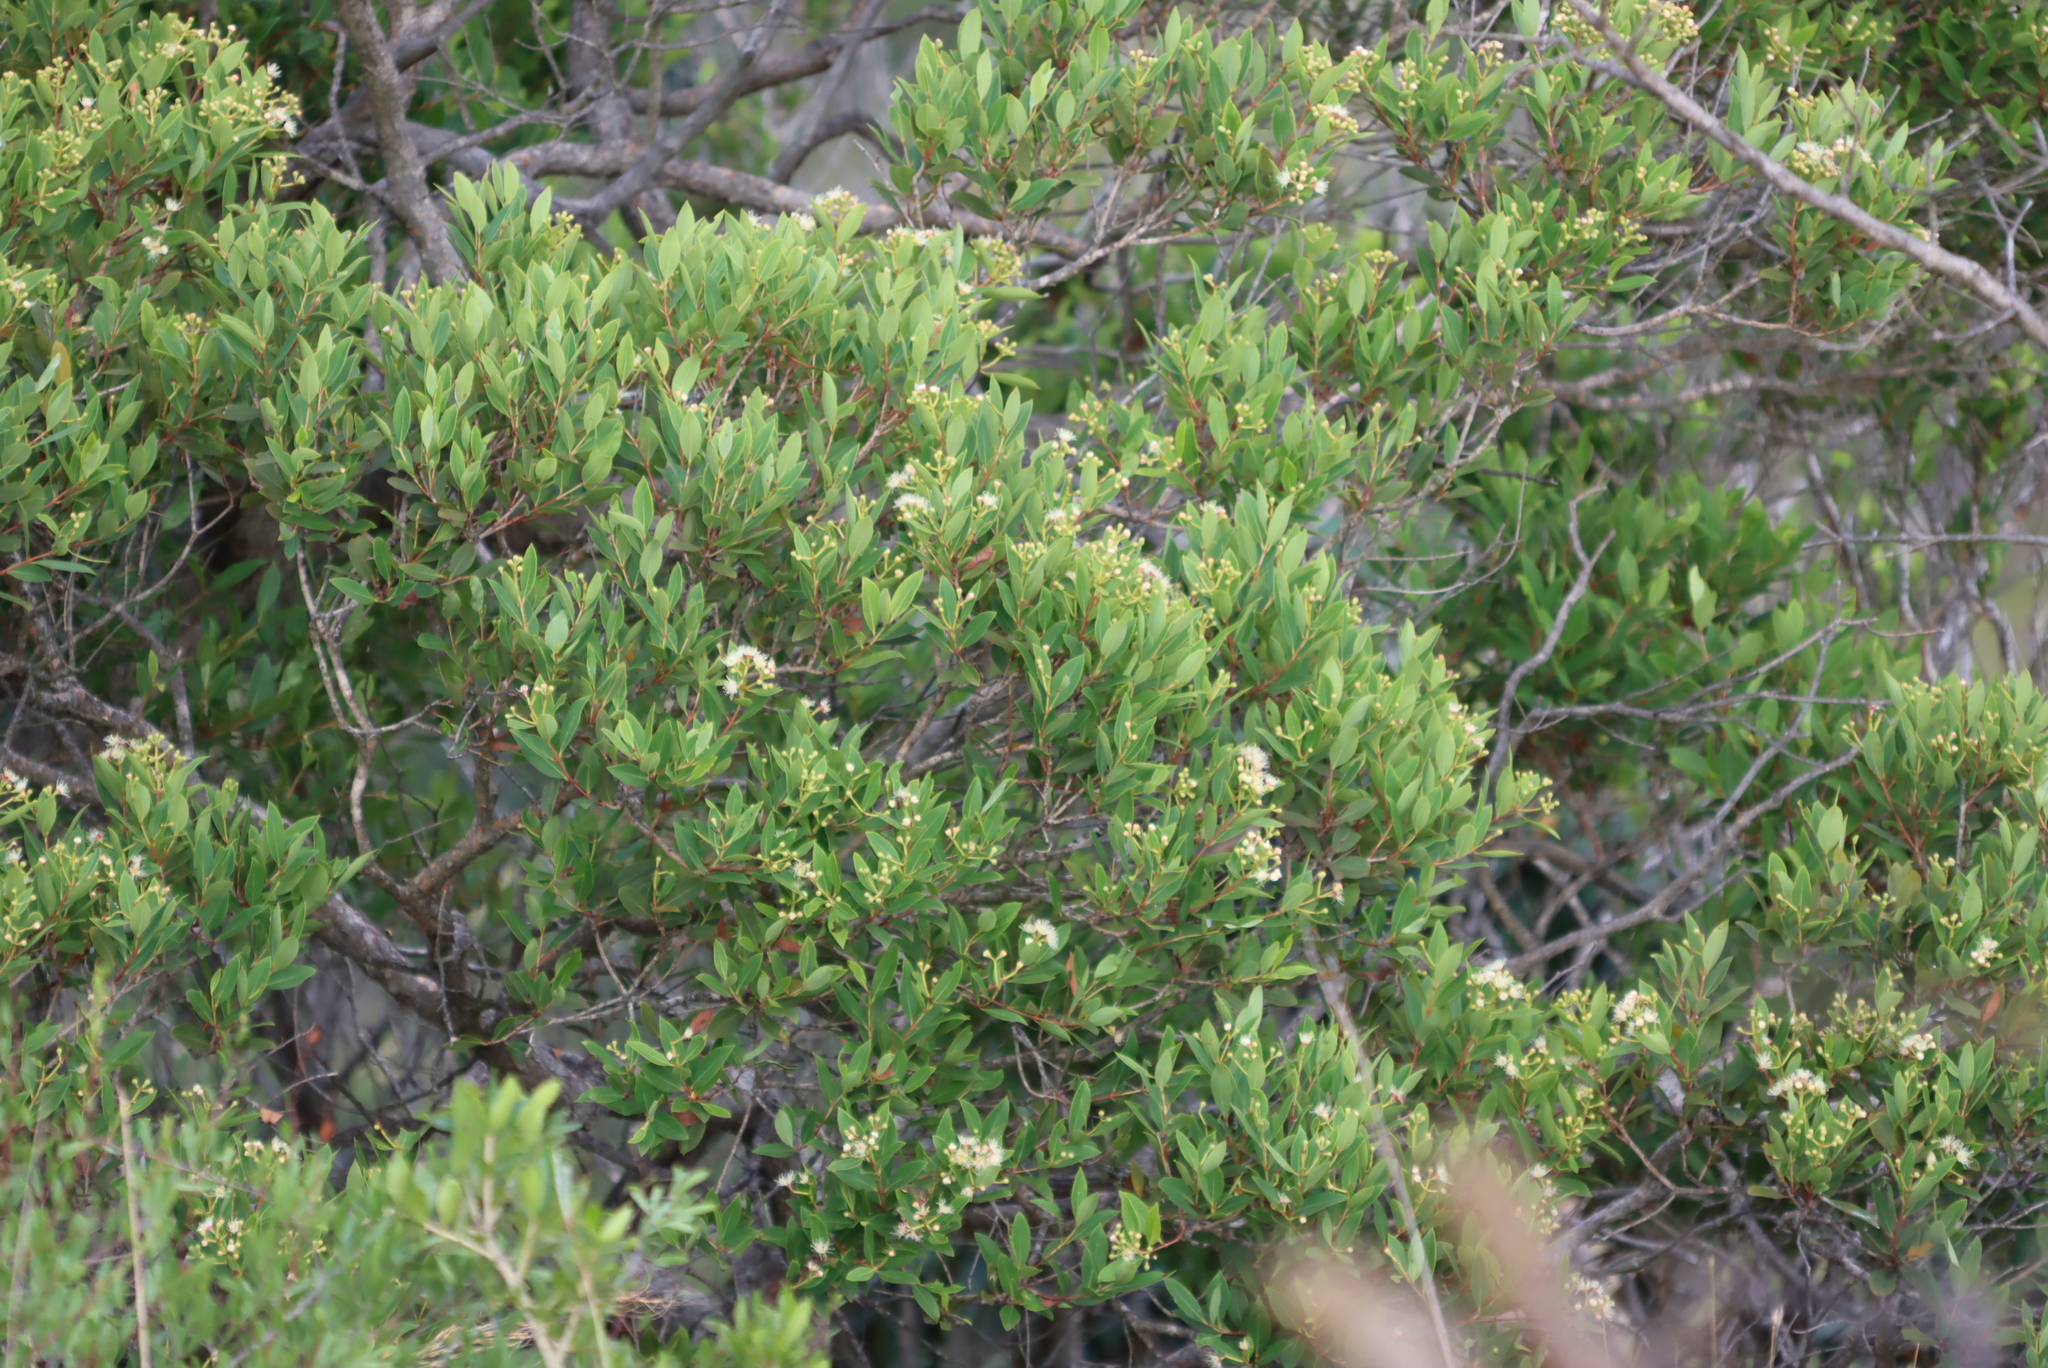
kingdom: Plantae
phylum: Tracheophyta
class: Magnoliopsida
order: Myrtales
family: Myrtaceae
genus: Syzygium
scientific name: Syzygium legatii
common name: Mountain waterberry
